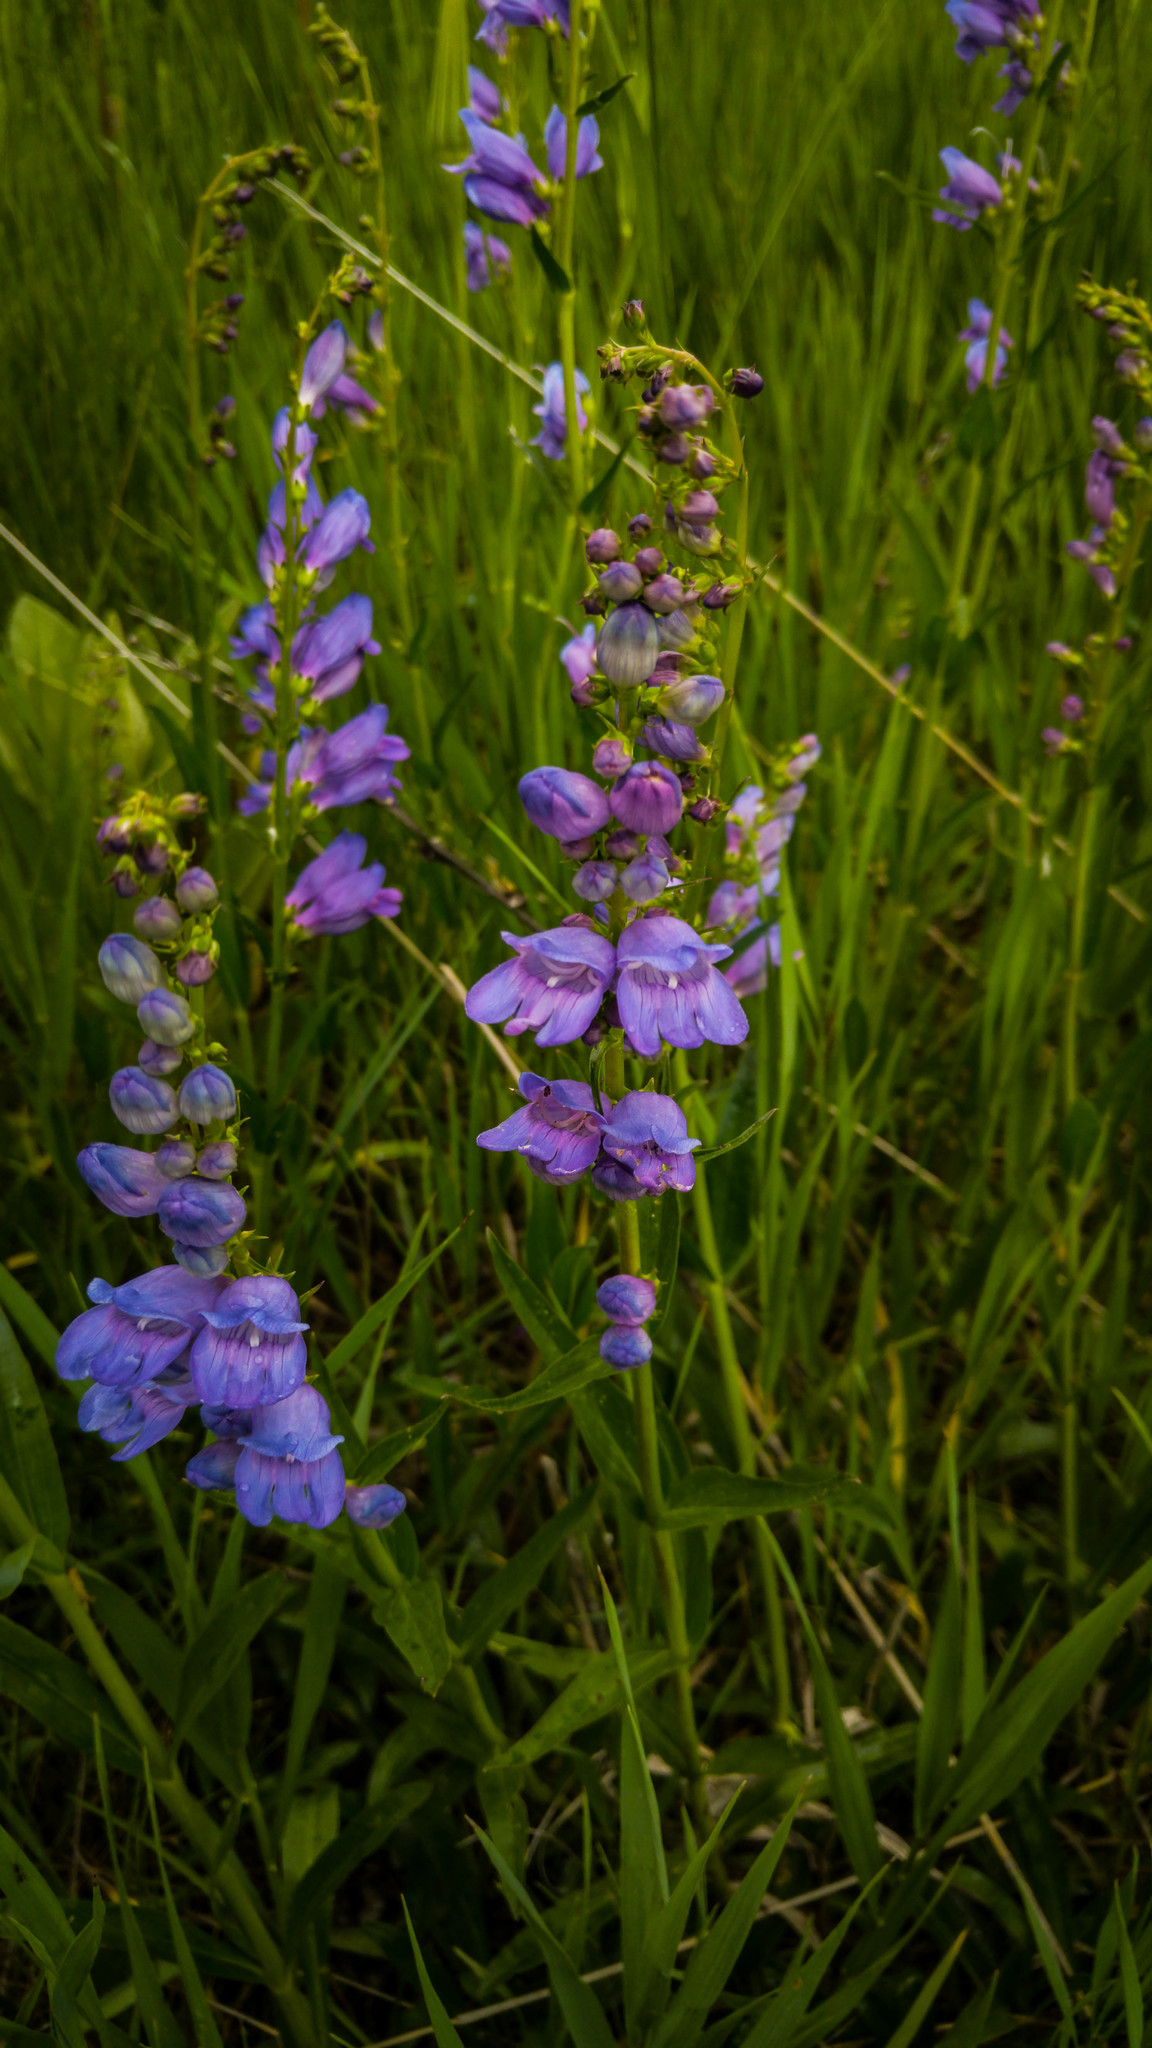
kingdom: Plantae
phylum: Tracheophyta
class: Magnoliopsida
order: Lamiales
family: Plantaginaceae
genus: Penstemon
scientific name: Penstemon strictus
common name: Rocky mountain penstemon
